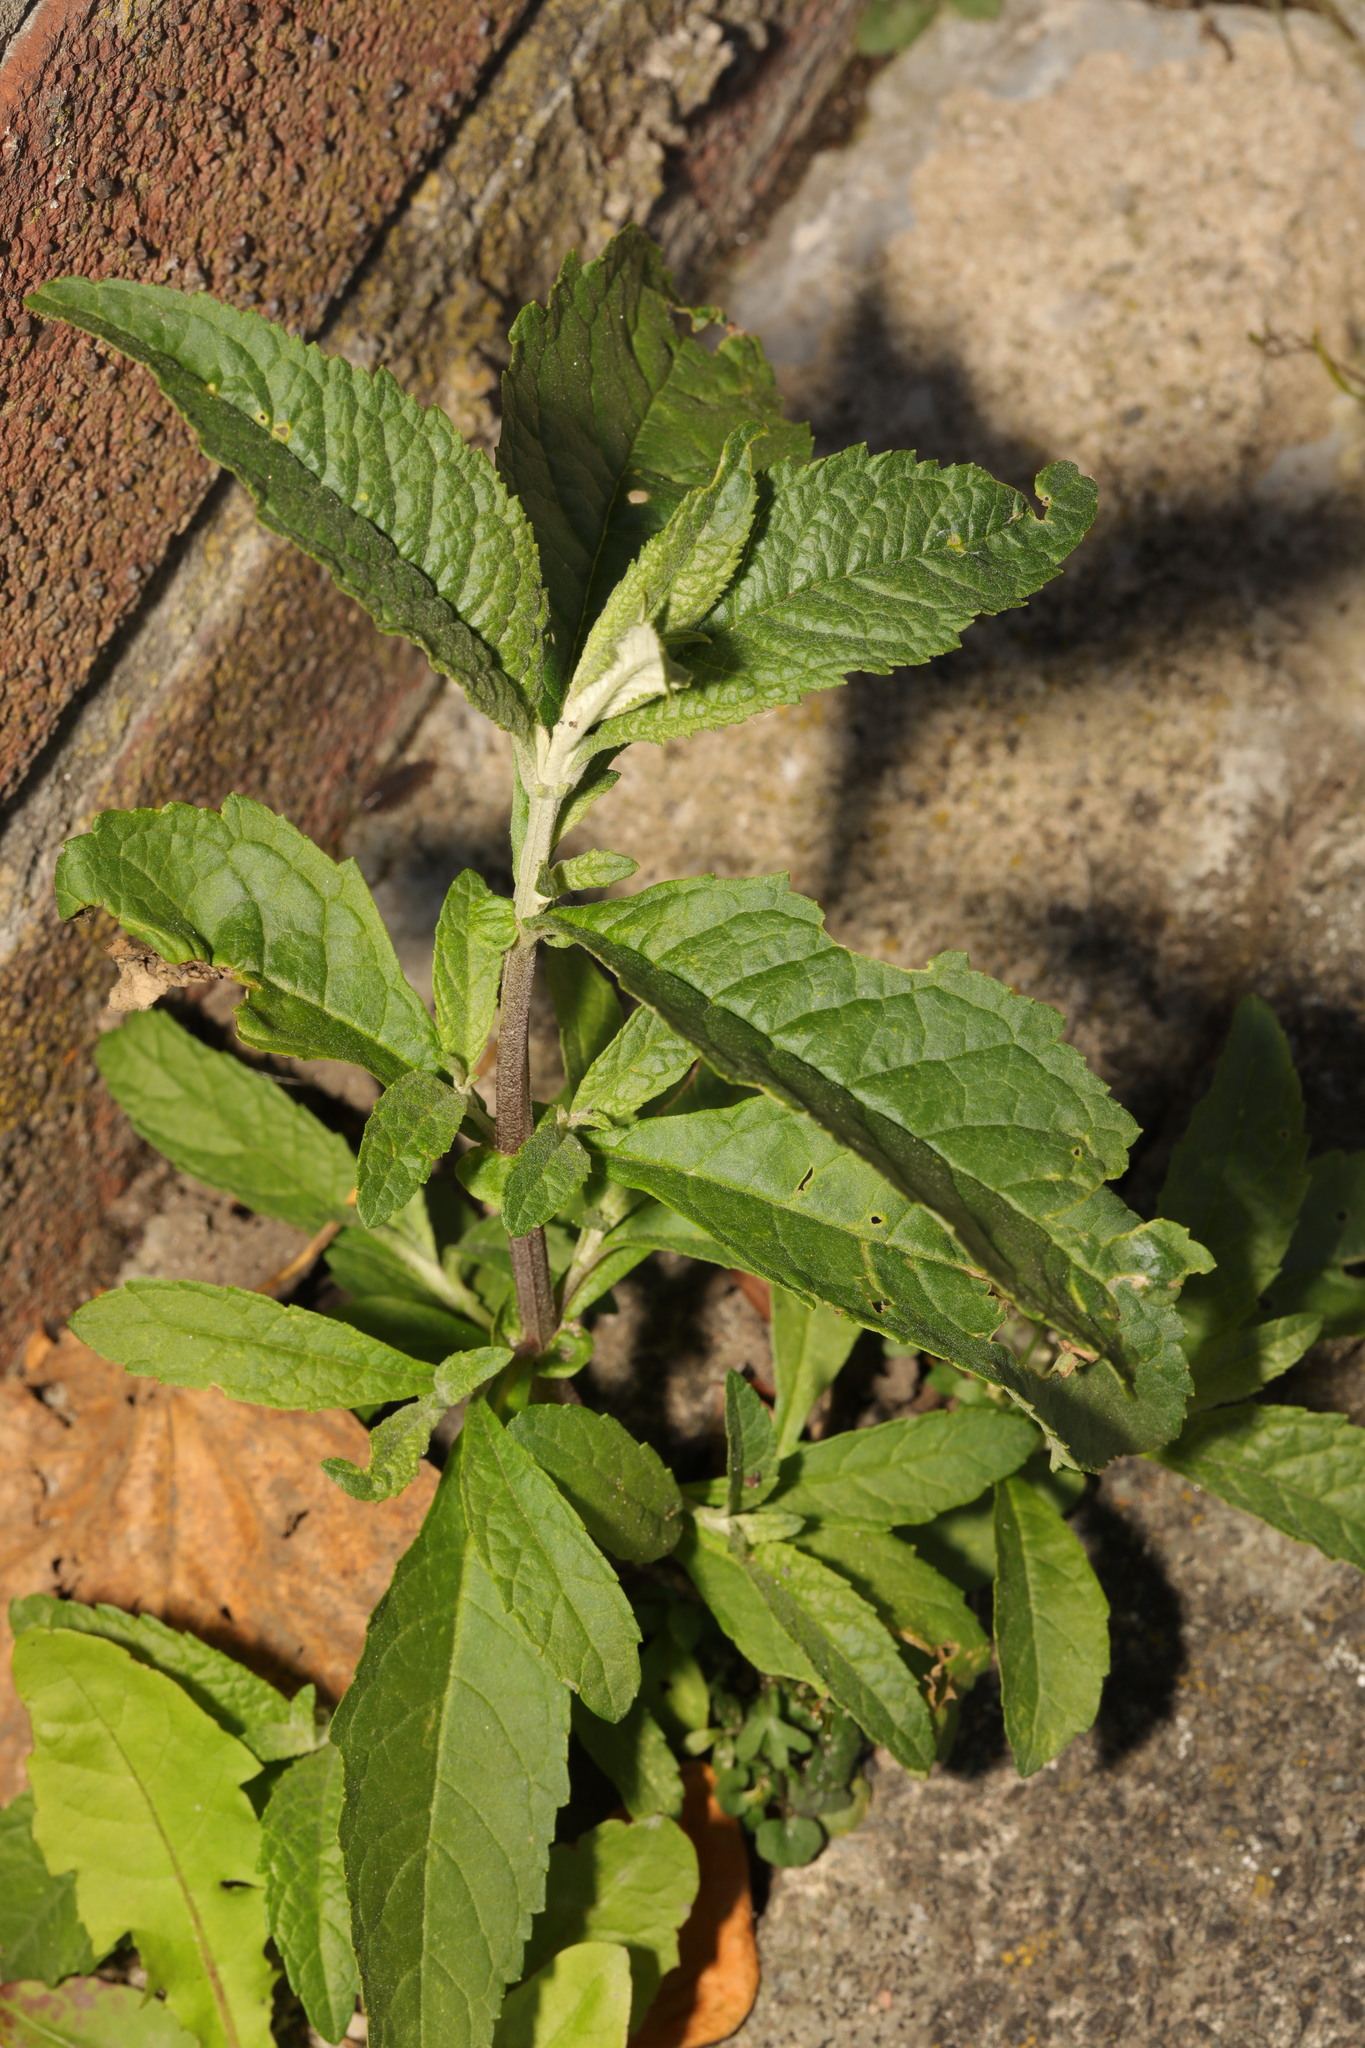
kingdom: Plantae
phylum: Tracheophyta
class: Magnoliopsida
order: Lamiales
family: Scrophulariaceae
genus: Buddleja
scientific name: Buddleja davidii
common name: Butterfly-bush
